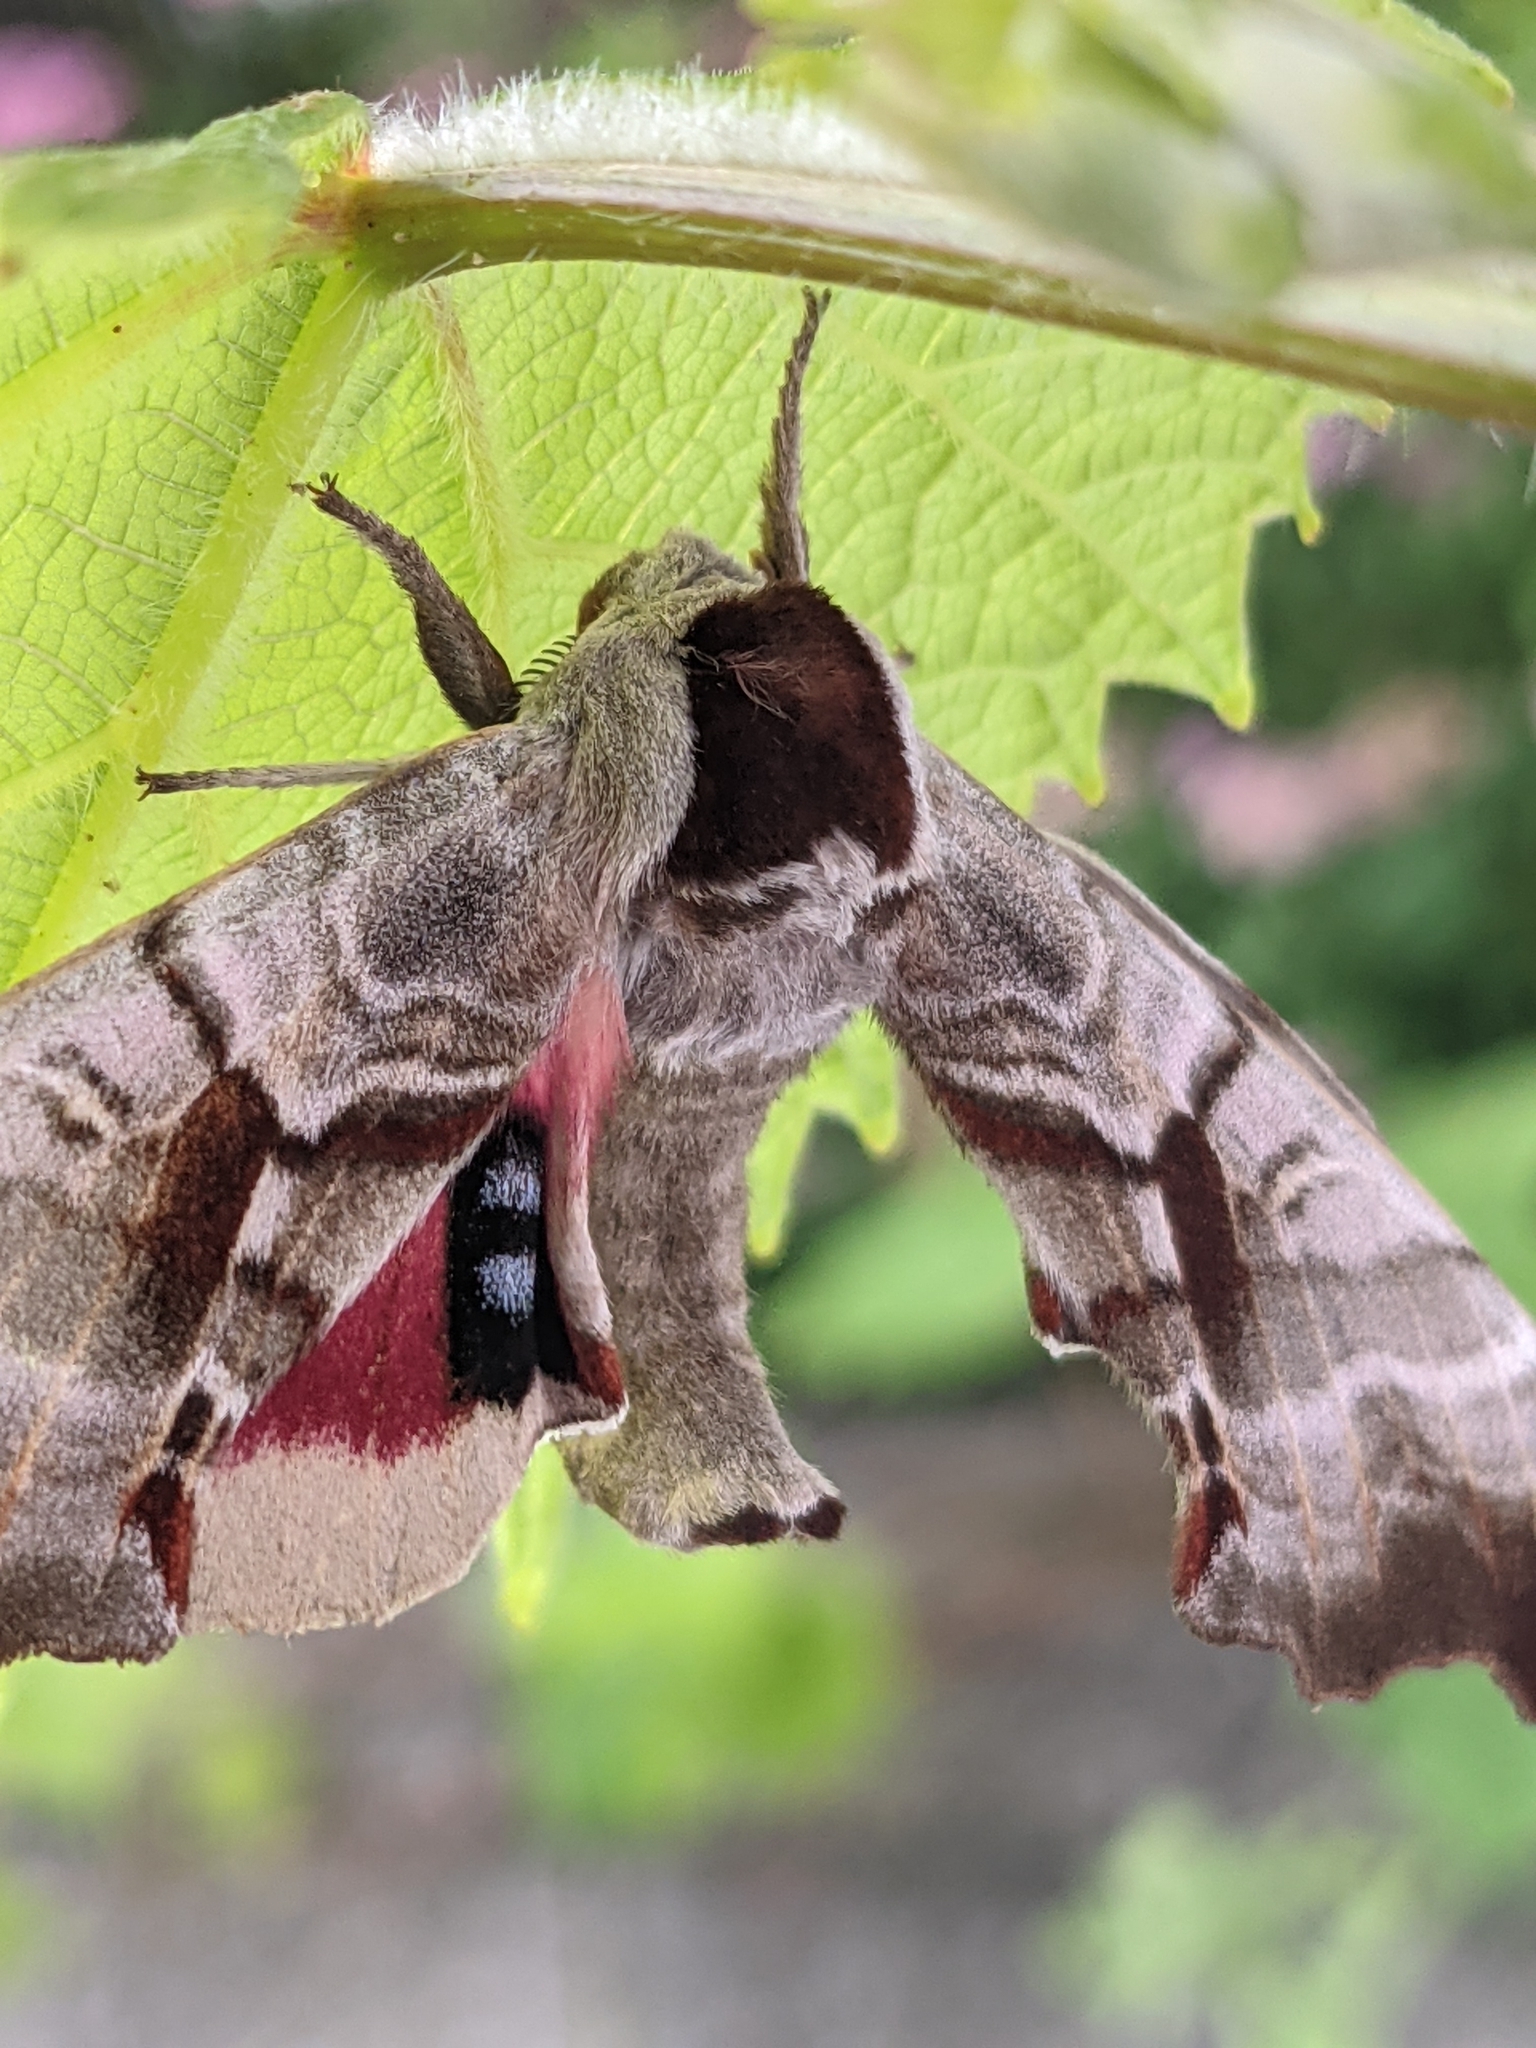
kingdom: Animalia
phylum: Arthropoda
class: Insecta
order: Lepidoptera
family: Sphingidae
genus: Smerinthus
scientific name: Smerinthus jamaicensis
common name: Twin spotted sphinx
